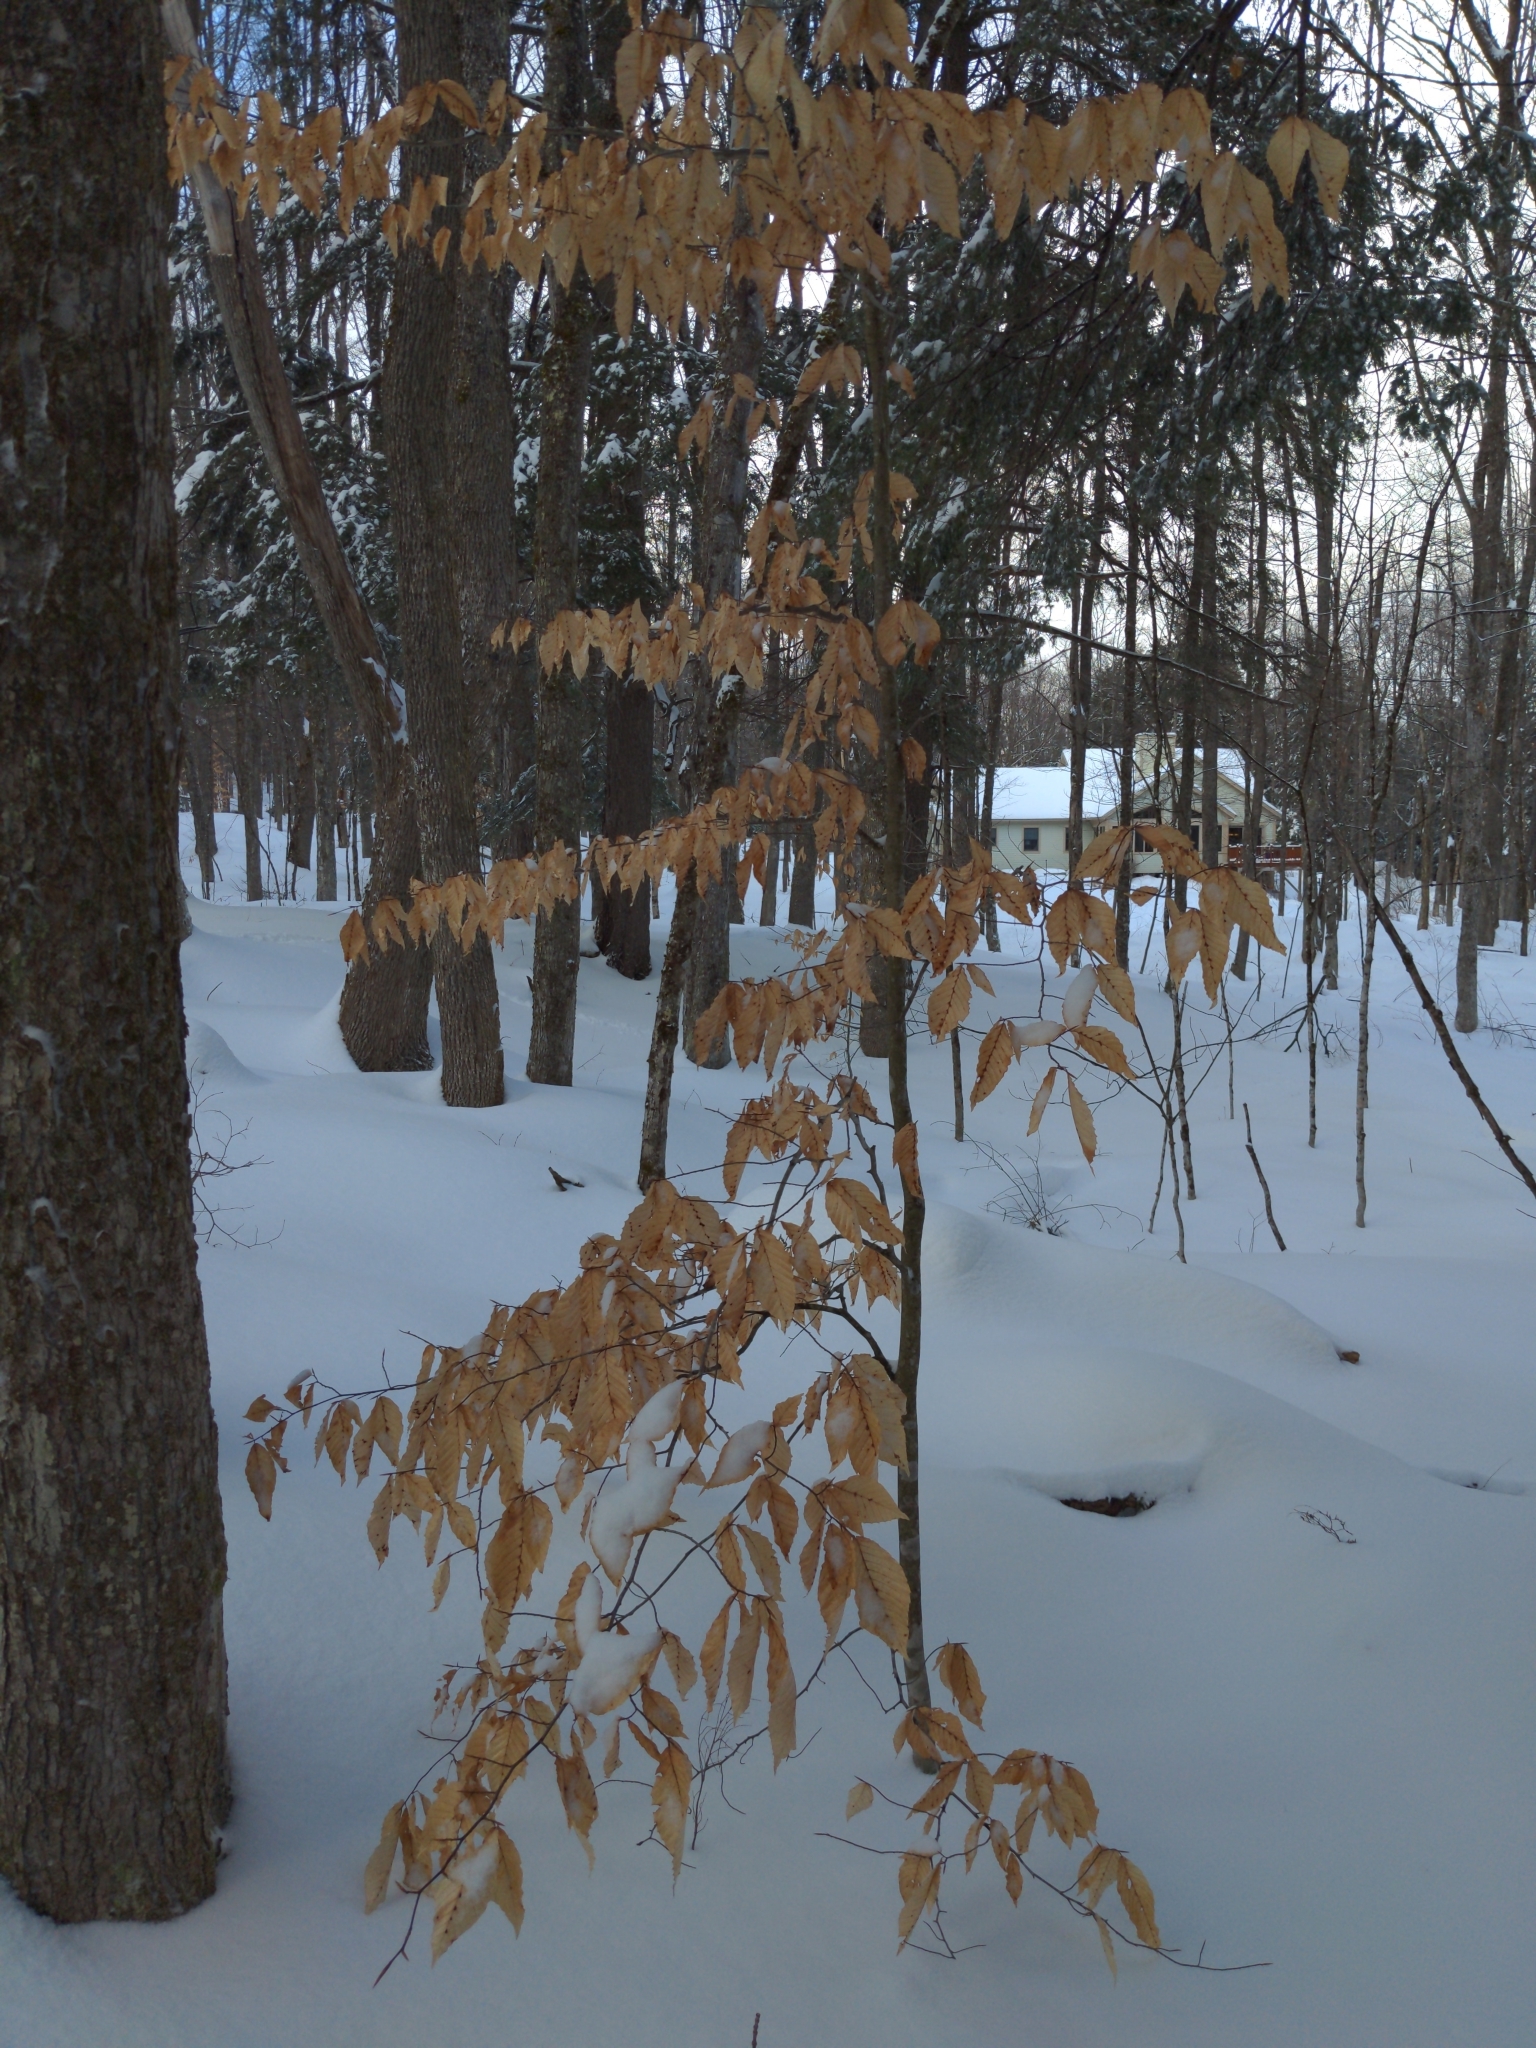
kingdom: Plantae
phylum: Tracheophyta
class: Magnoliopsida
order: Fagales
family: Fagaceae
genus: Fagus
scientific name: Fagus grandifolia
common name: American beech
